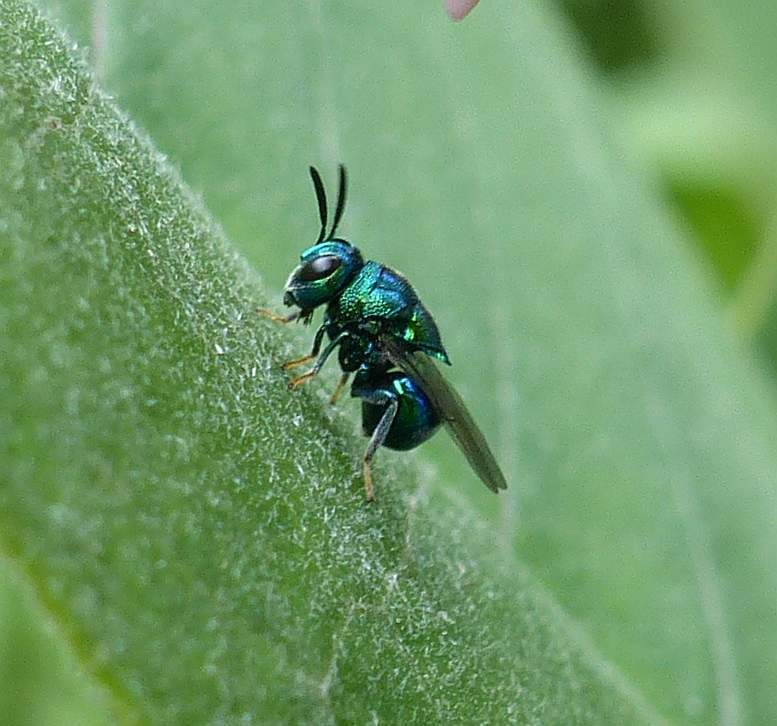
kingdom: Animalia
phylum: Arthropoda
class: Insecta
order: Hymenoptera
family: Perilampidae
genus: Euperilampus
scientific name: Euperilampus triangularis
